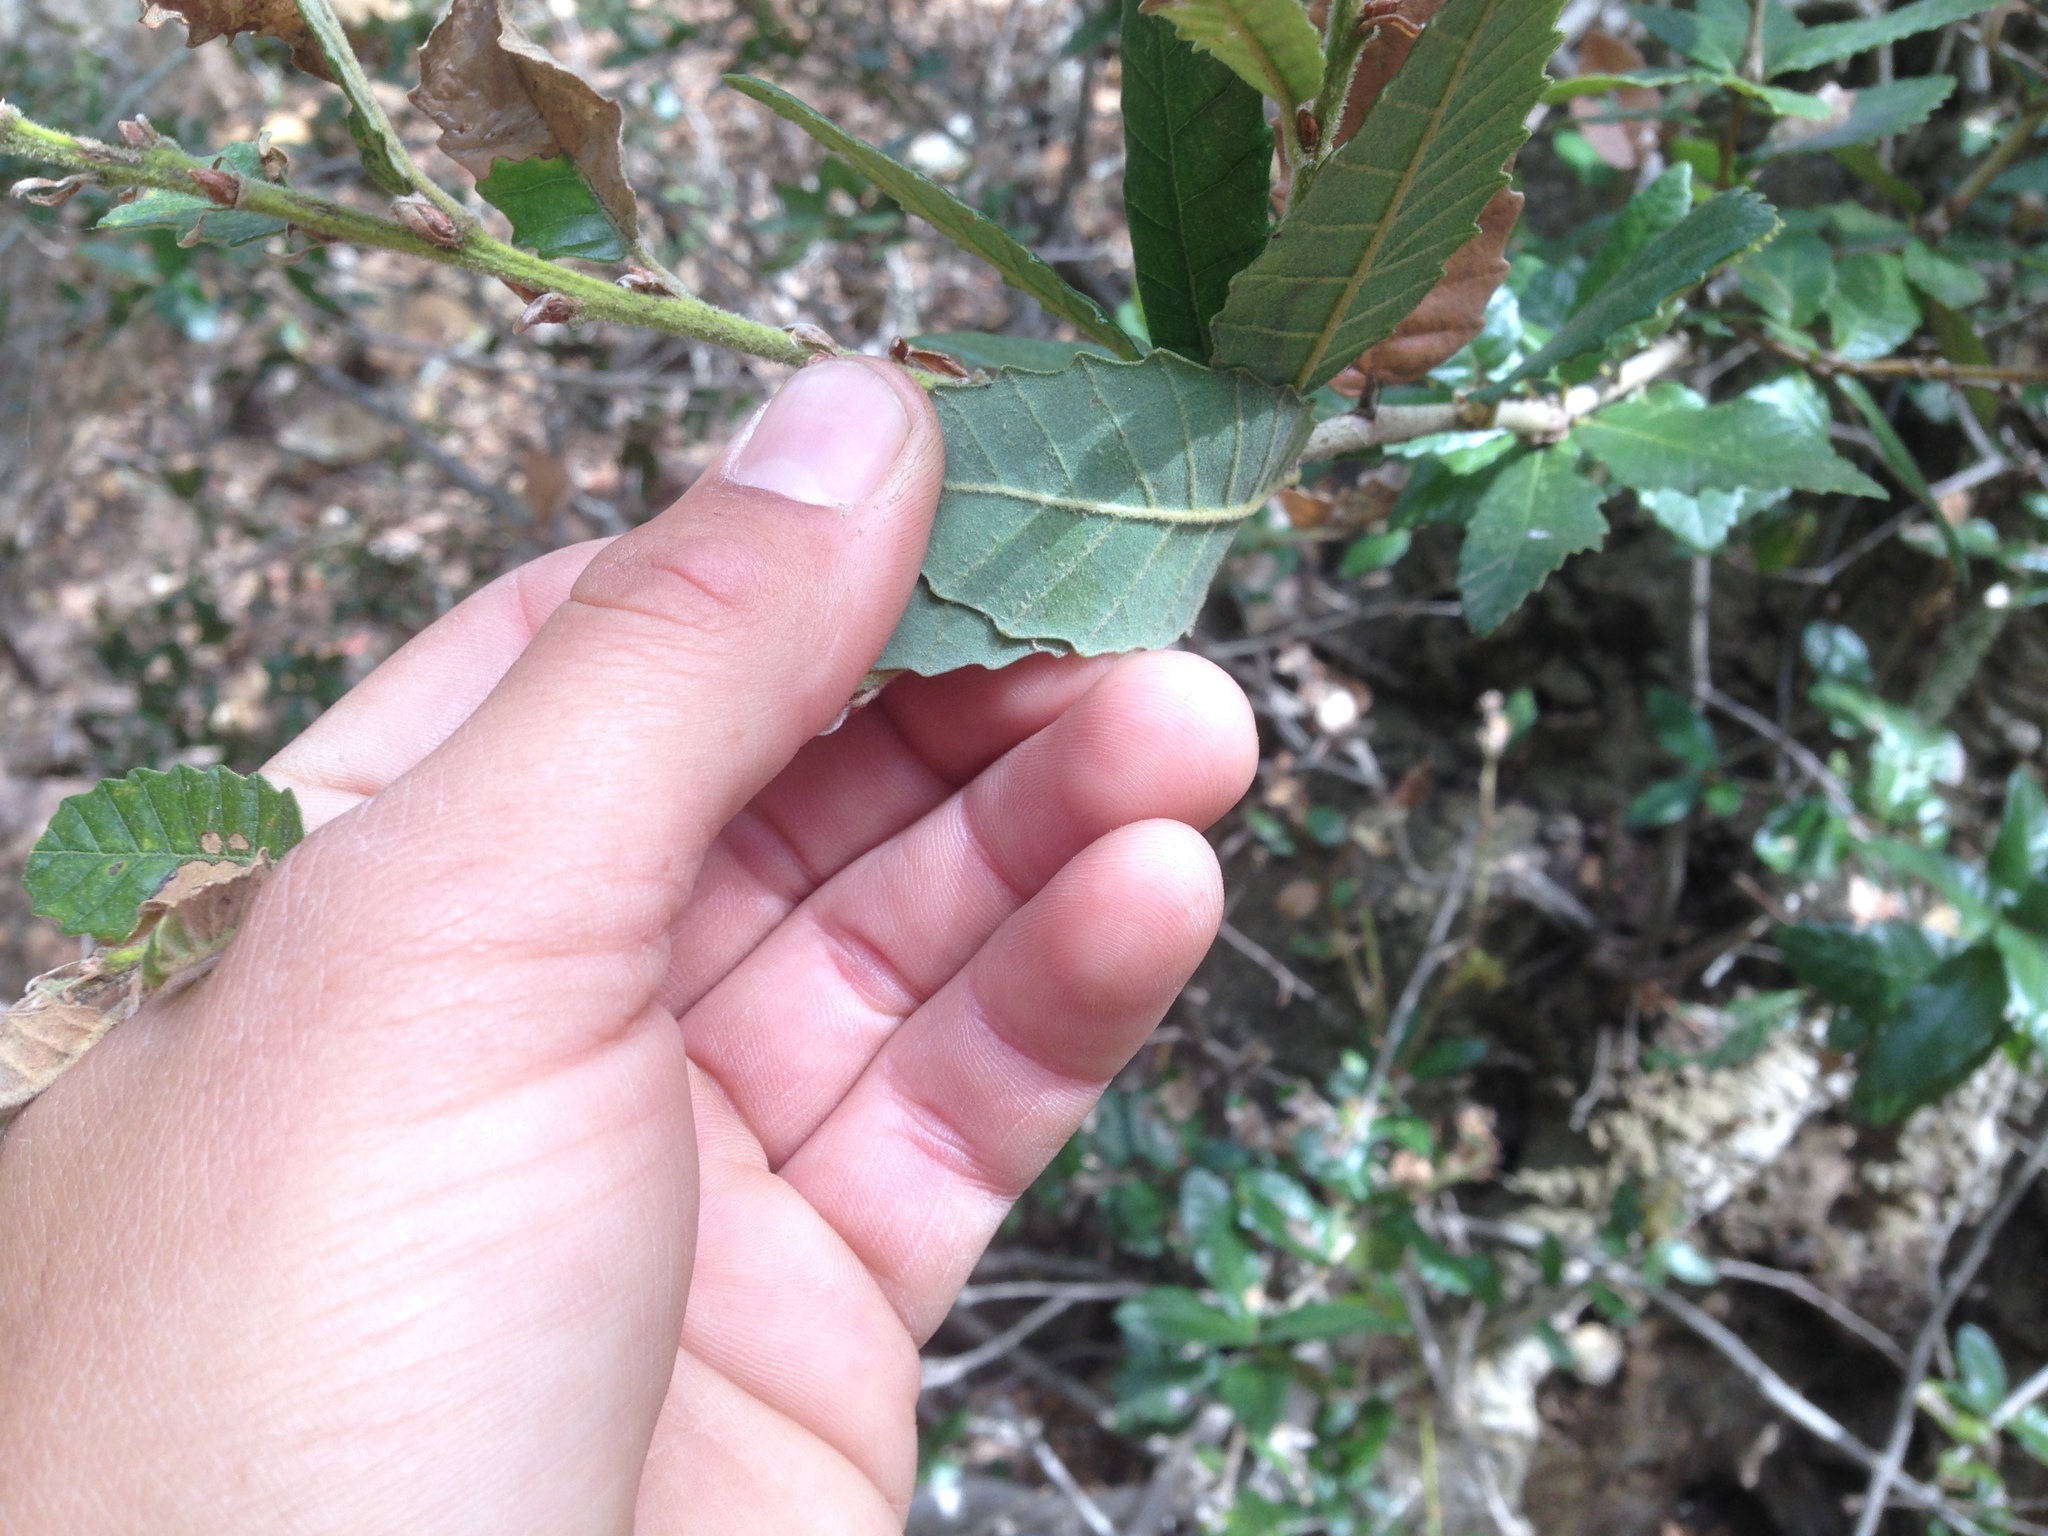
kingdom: Plantae
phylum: Tracheophyta
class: Magnoliopsida
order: Fagales
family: Fagaceae
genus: Quercus
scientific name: Quercus tomentella
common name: Island oak
